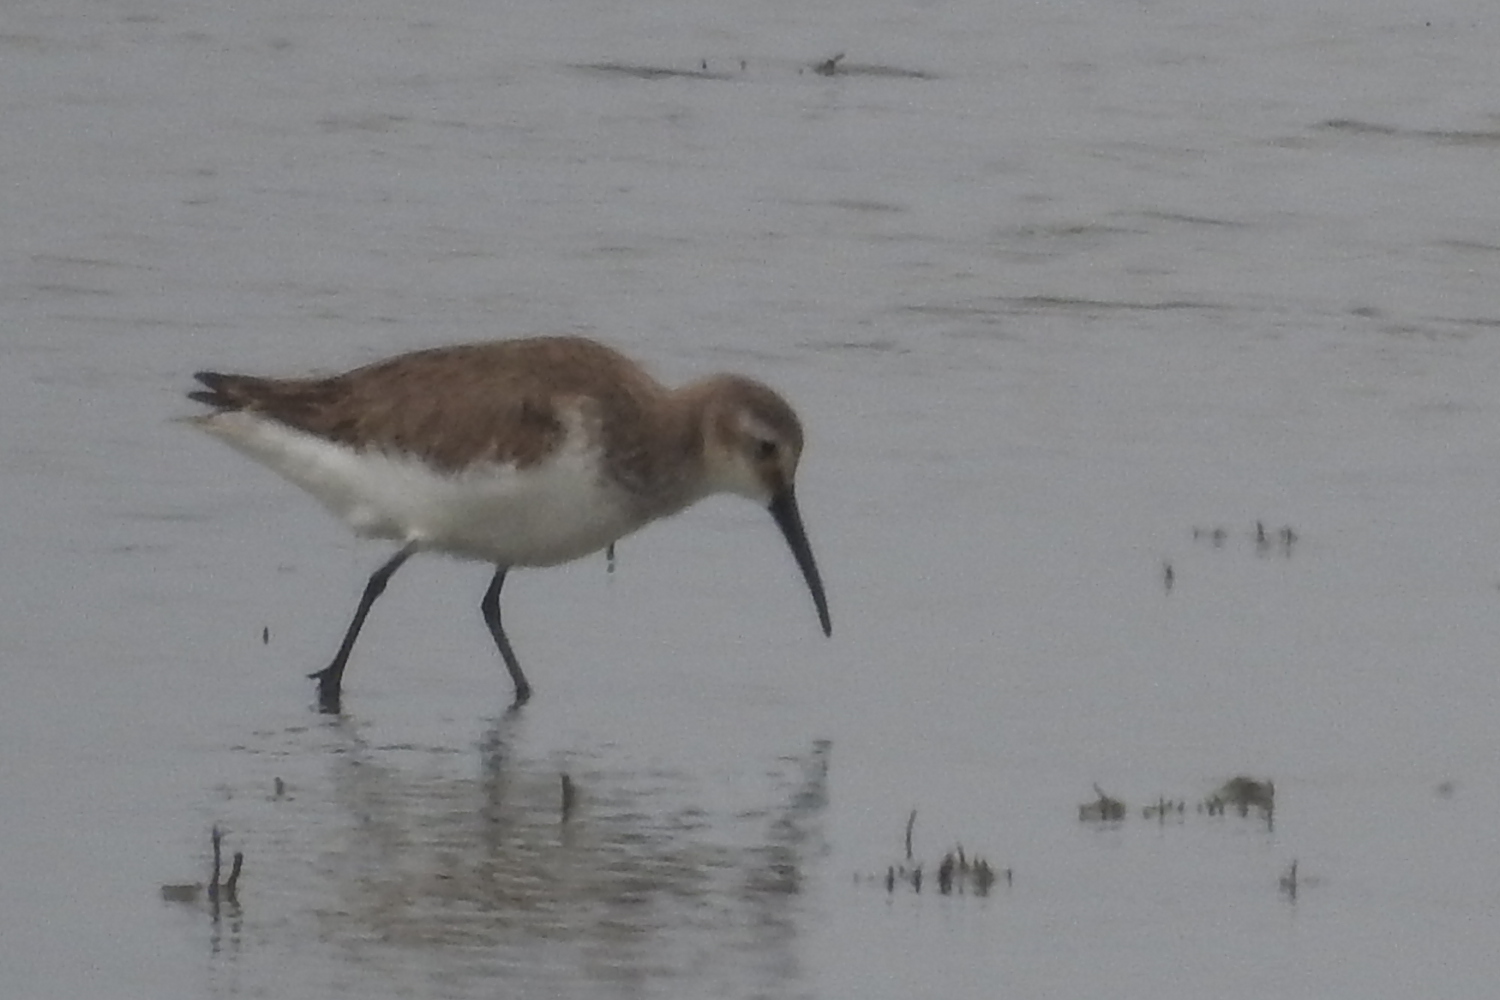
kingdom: Animalia
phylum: Chordata
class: Aves
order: Charadriiformes
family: Scolopacidae
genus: Calidris
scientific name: Calidris alpina
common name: Dunlin
